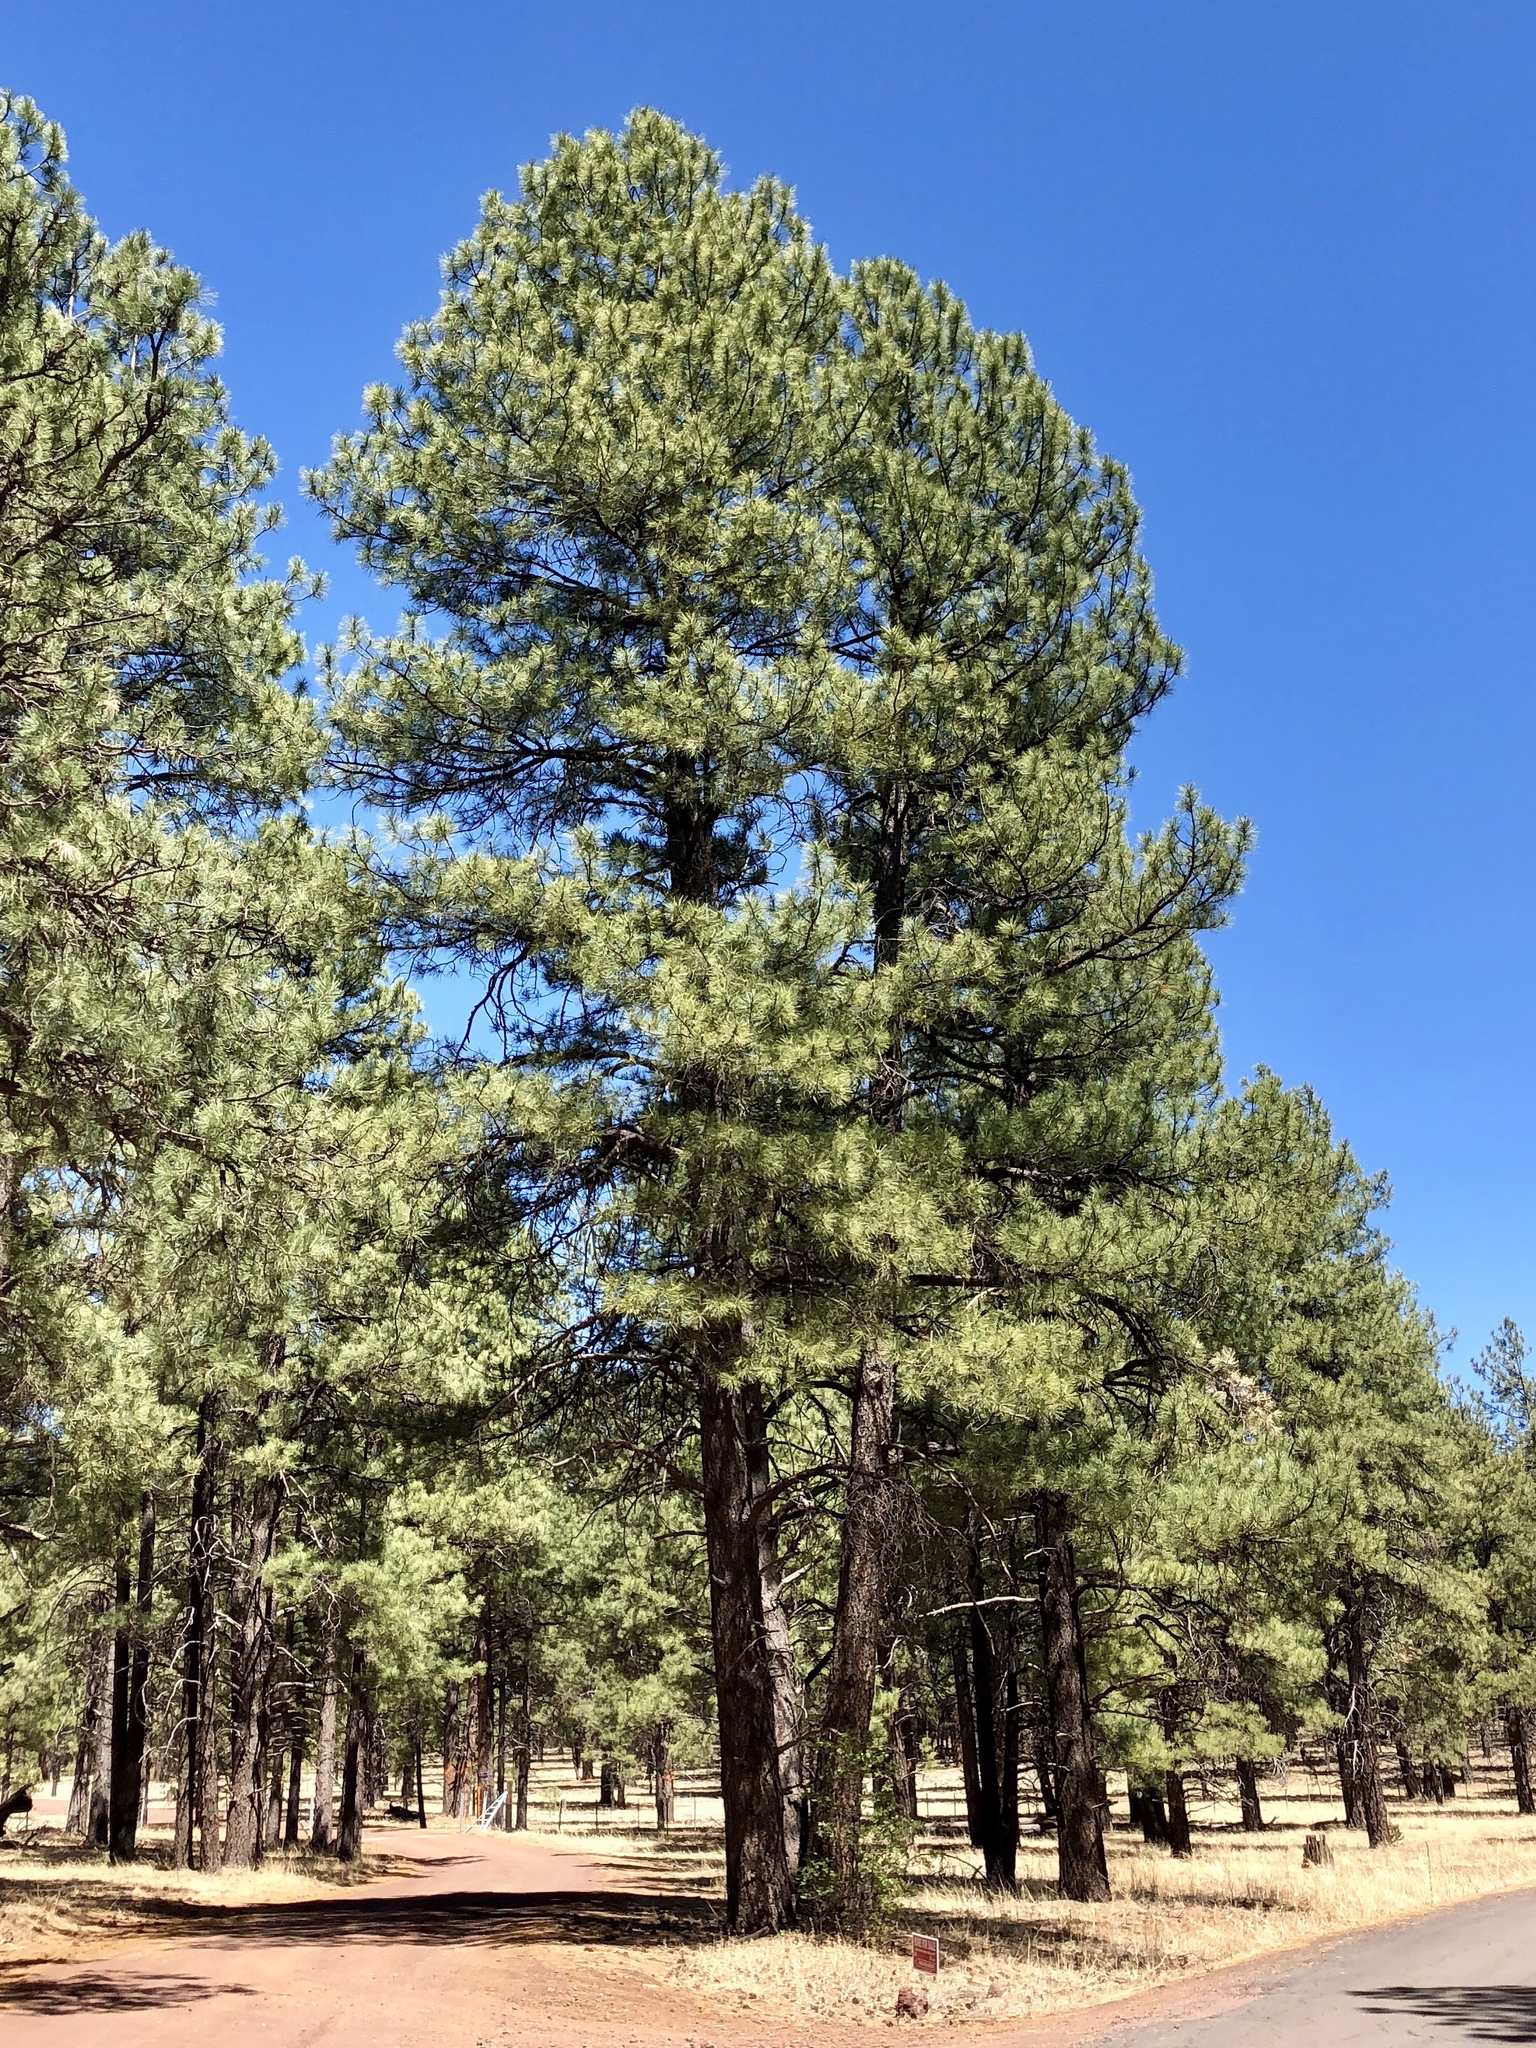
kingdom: Plantae
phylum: Tracheophyta
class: Pinopsida
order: Pinales
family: Pinaceae
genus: Pinus
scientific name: Pinus ponderosa
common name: Western yellow-pine
